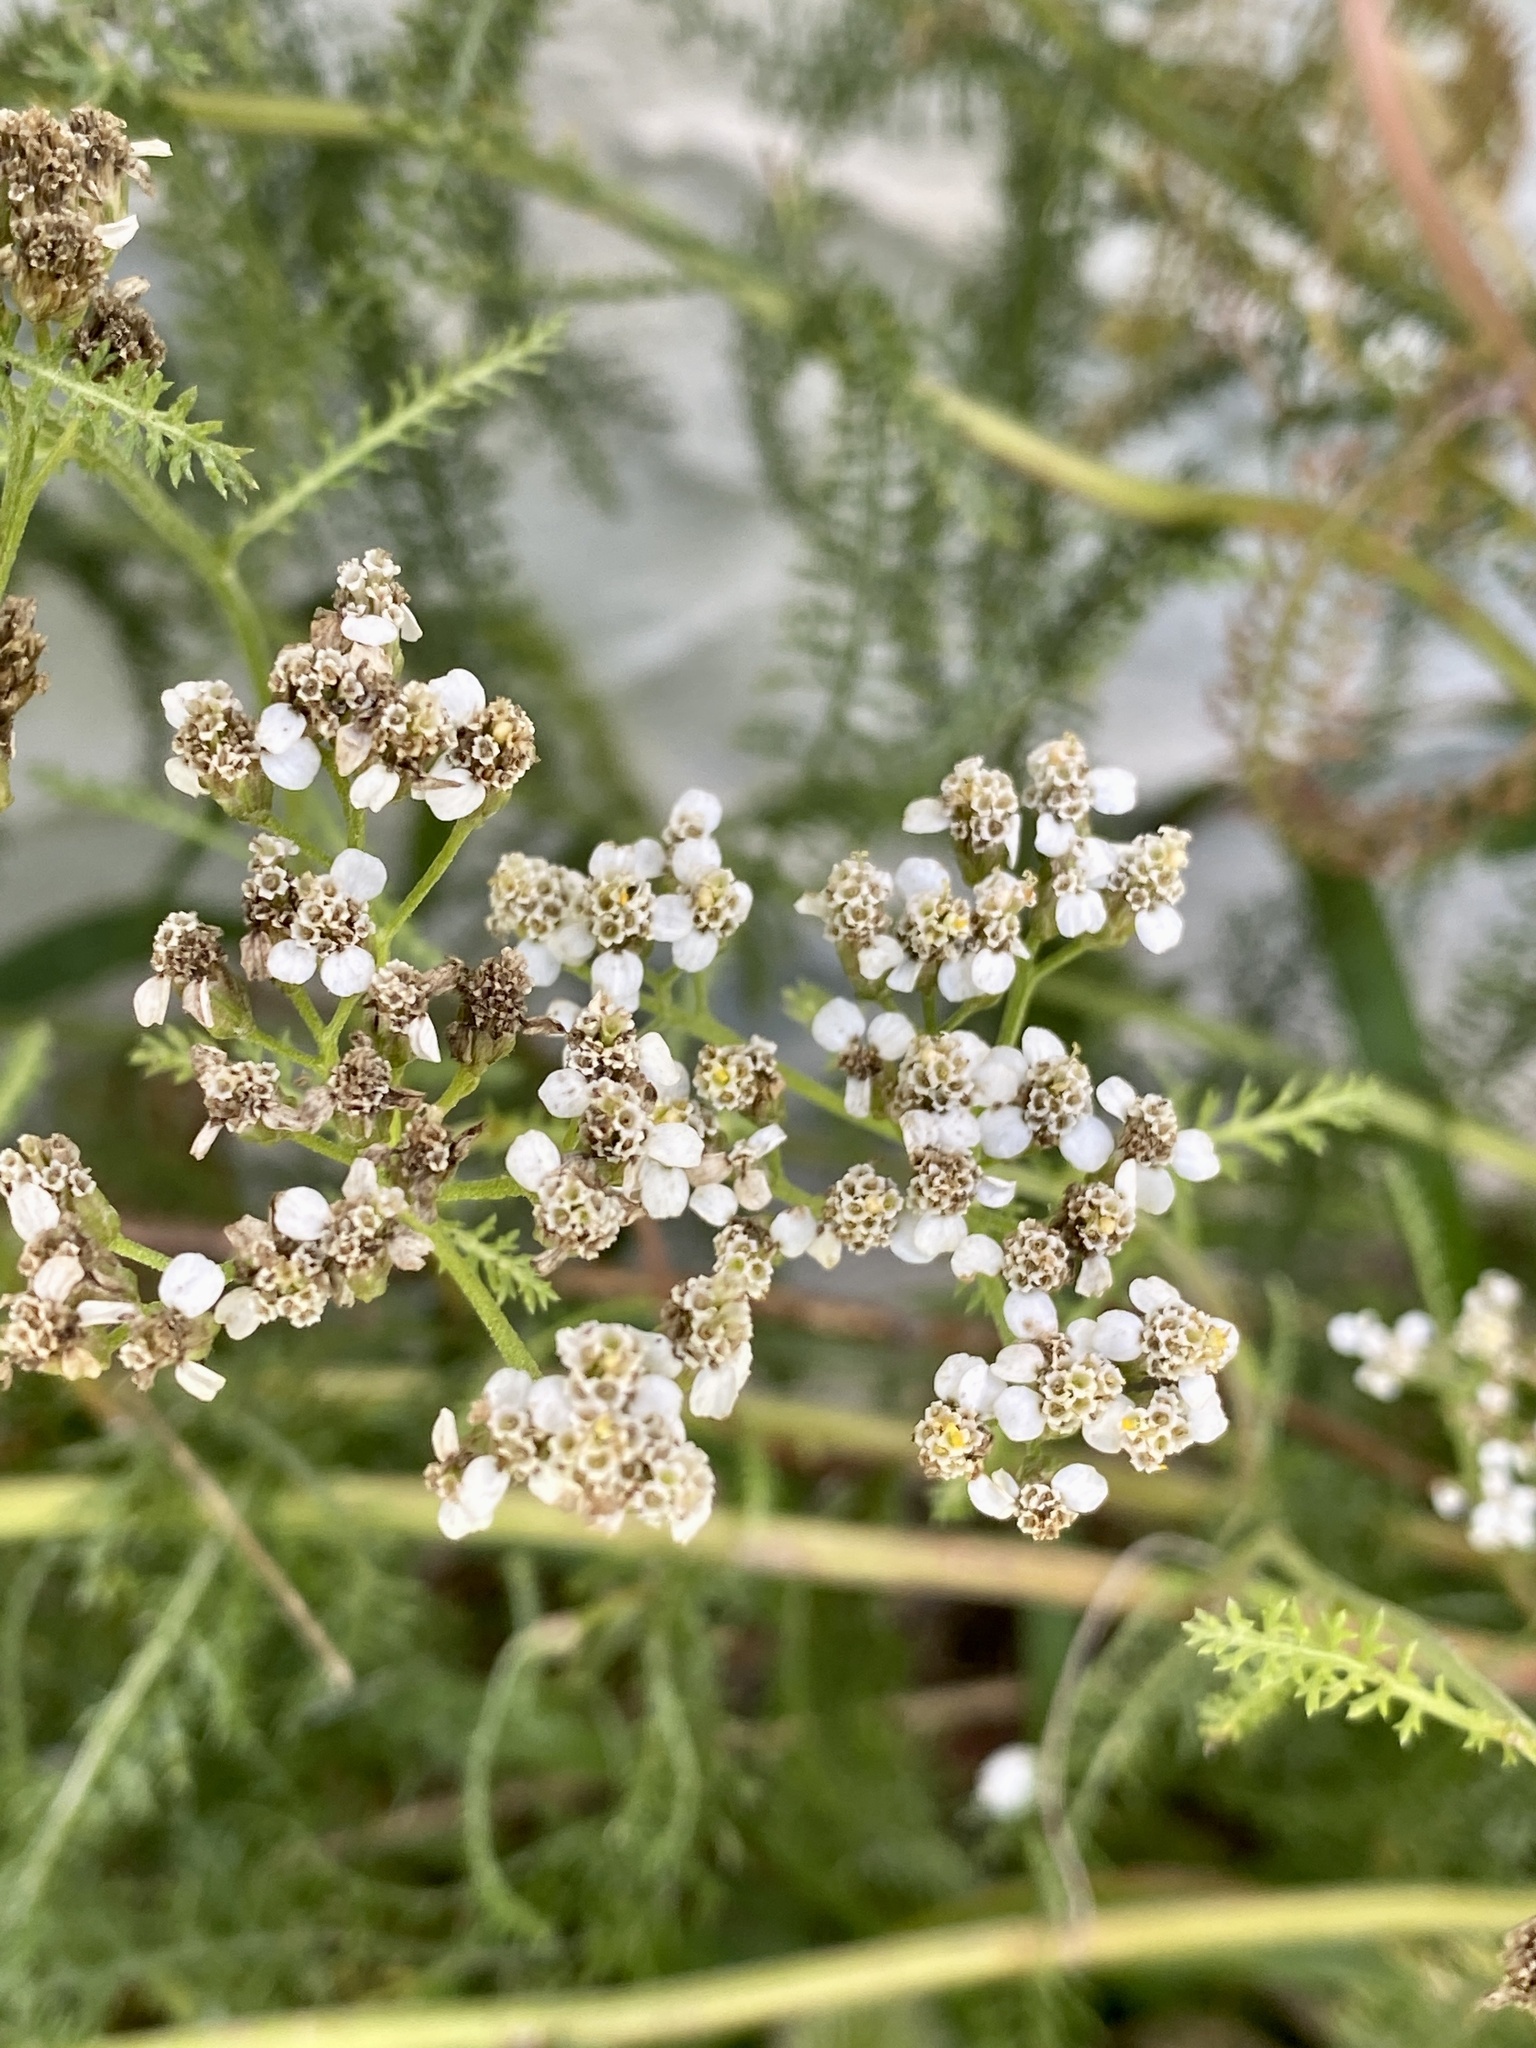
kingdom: Plantae
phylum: Tracheophyta
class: Magnoliopsida
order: Asterales
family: Asteraceae
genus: Achillea
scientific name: Achillea millefolium
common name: Yarrow
